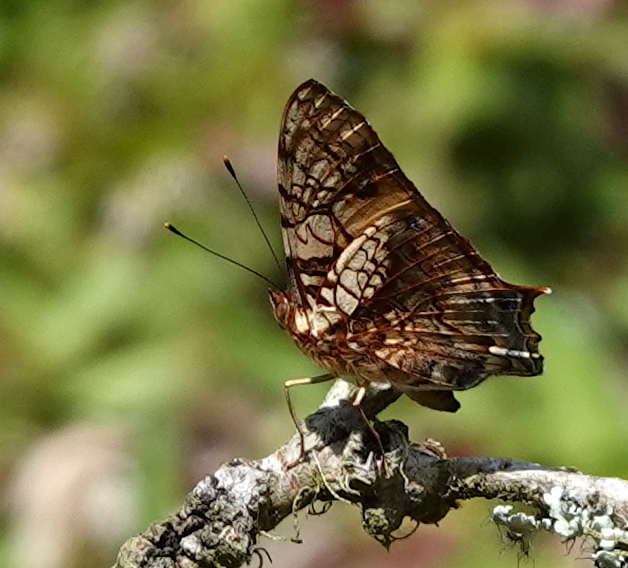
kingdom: Animalia
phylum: Arthropoda
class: Insecta
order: Lepidoptera
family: Nymphalidae
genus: Hypanartia
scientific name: Hypanartia lethe
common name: Orange mapwing
